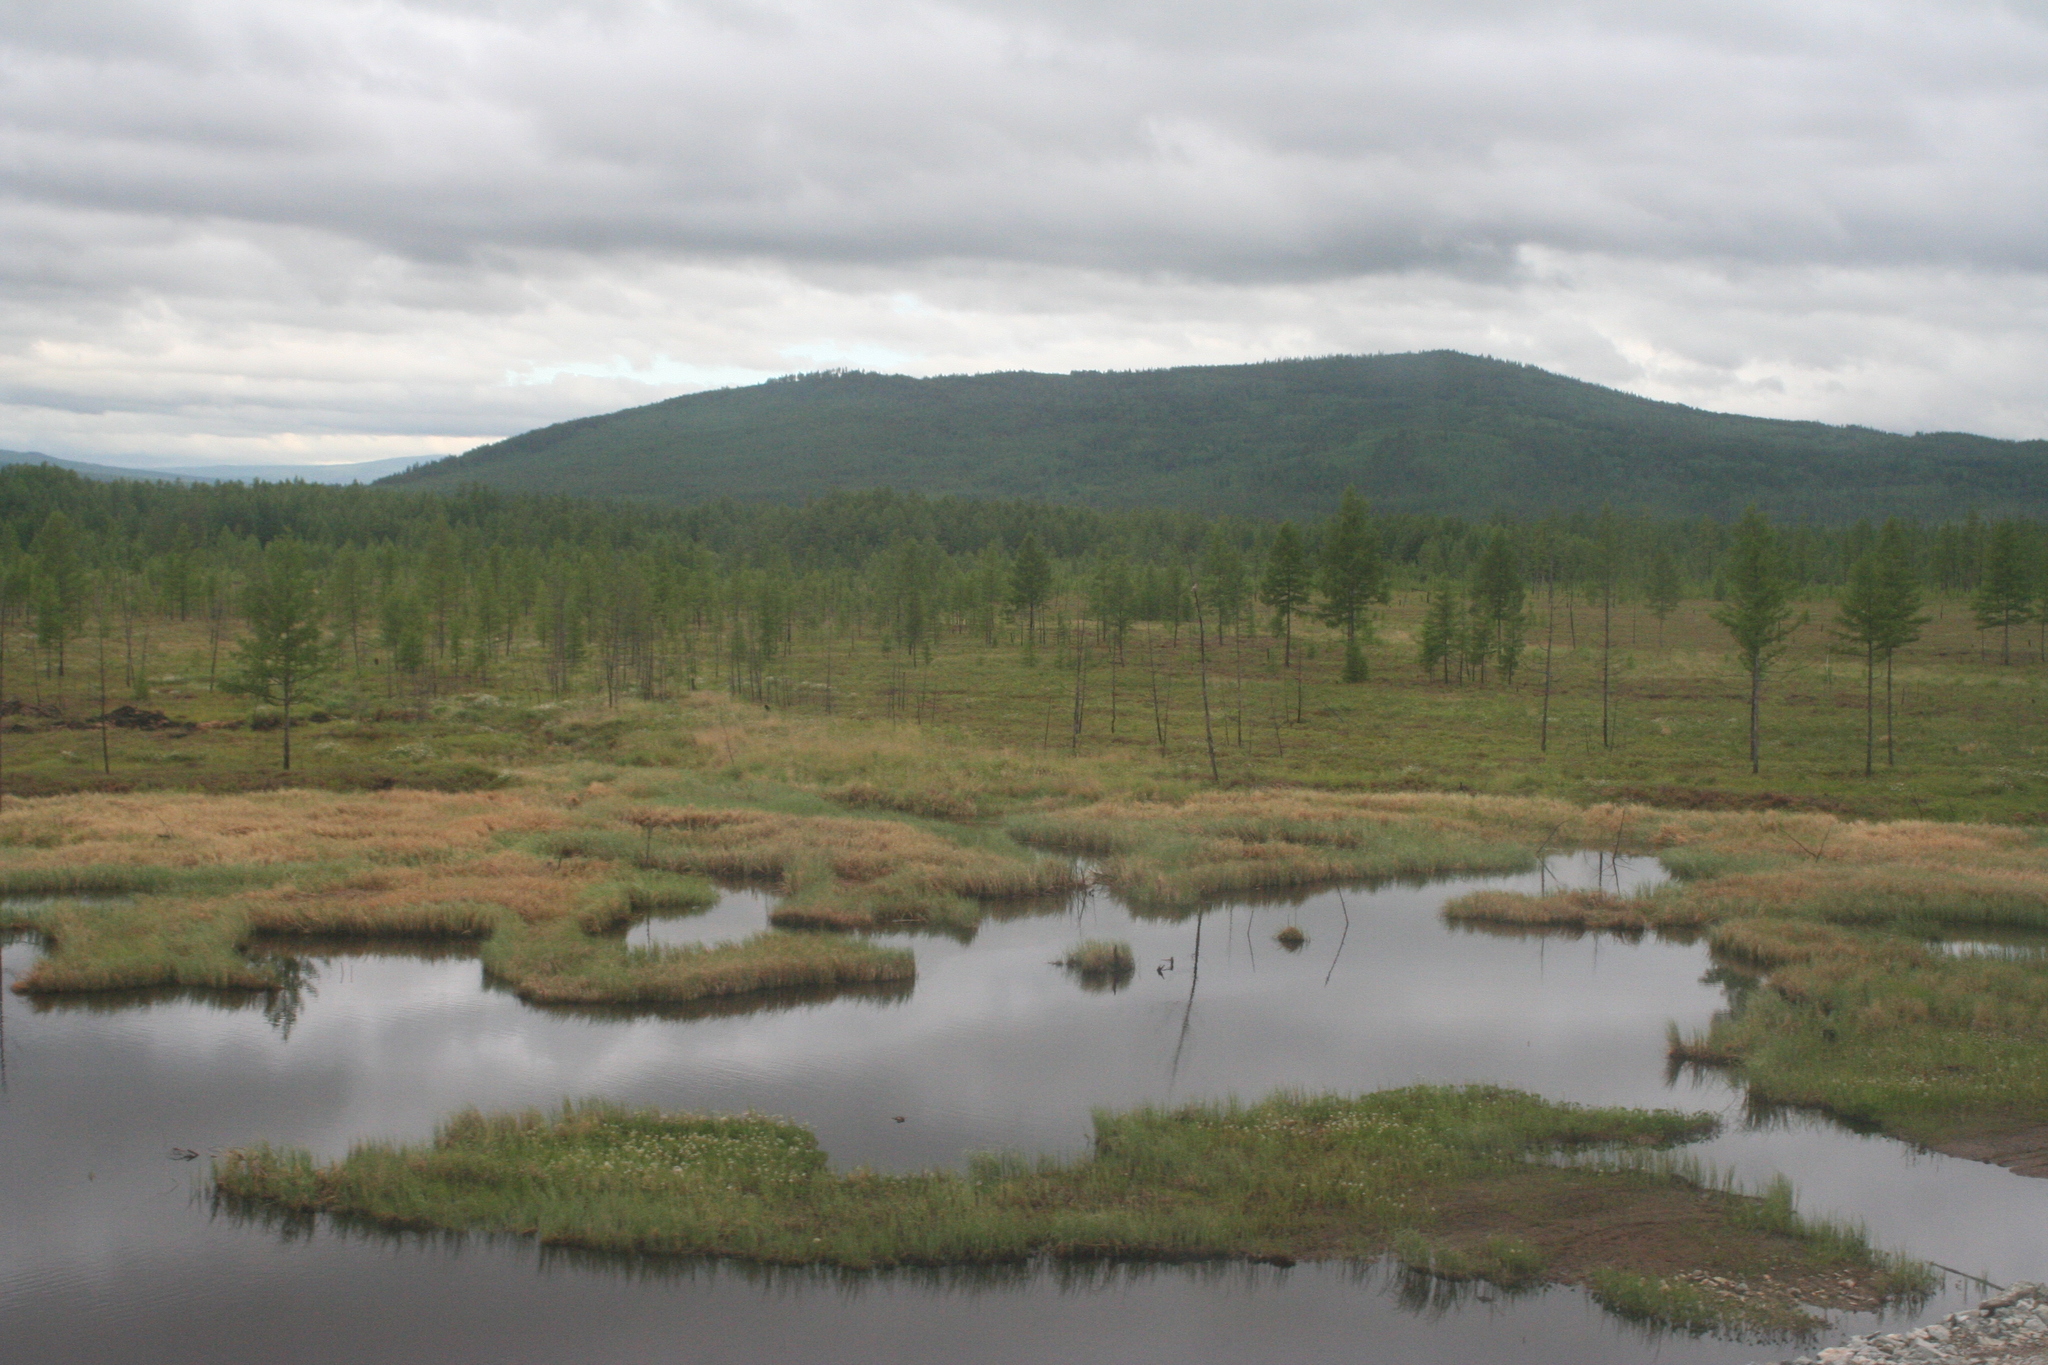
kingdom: Plantae
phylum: Tracheophyta
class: Pinopsida
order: Pinales
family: Pinaceae
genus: Larix
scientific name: Larix gmelinii
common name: Dahurian larch
